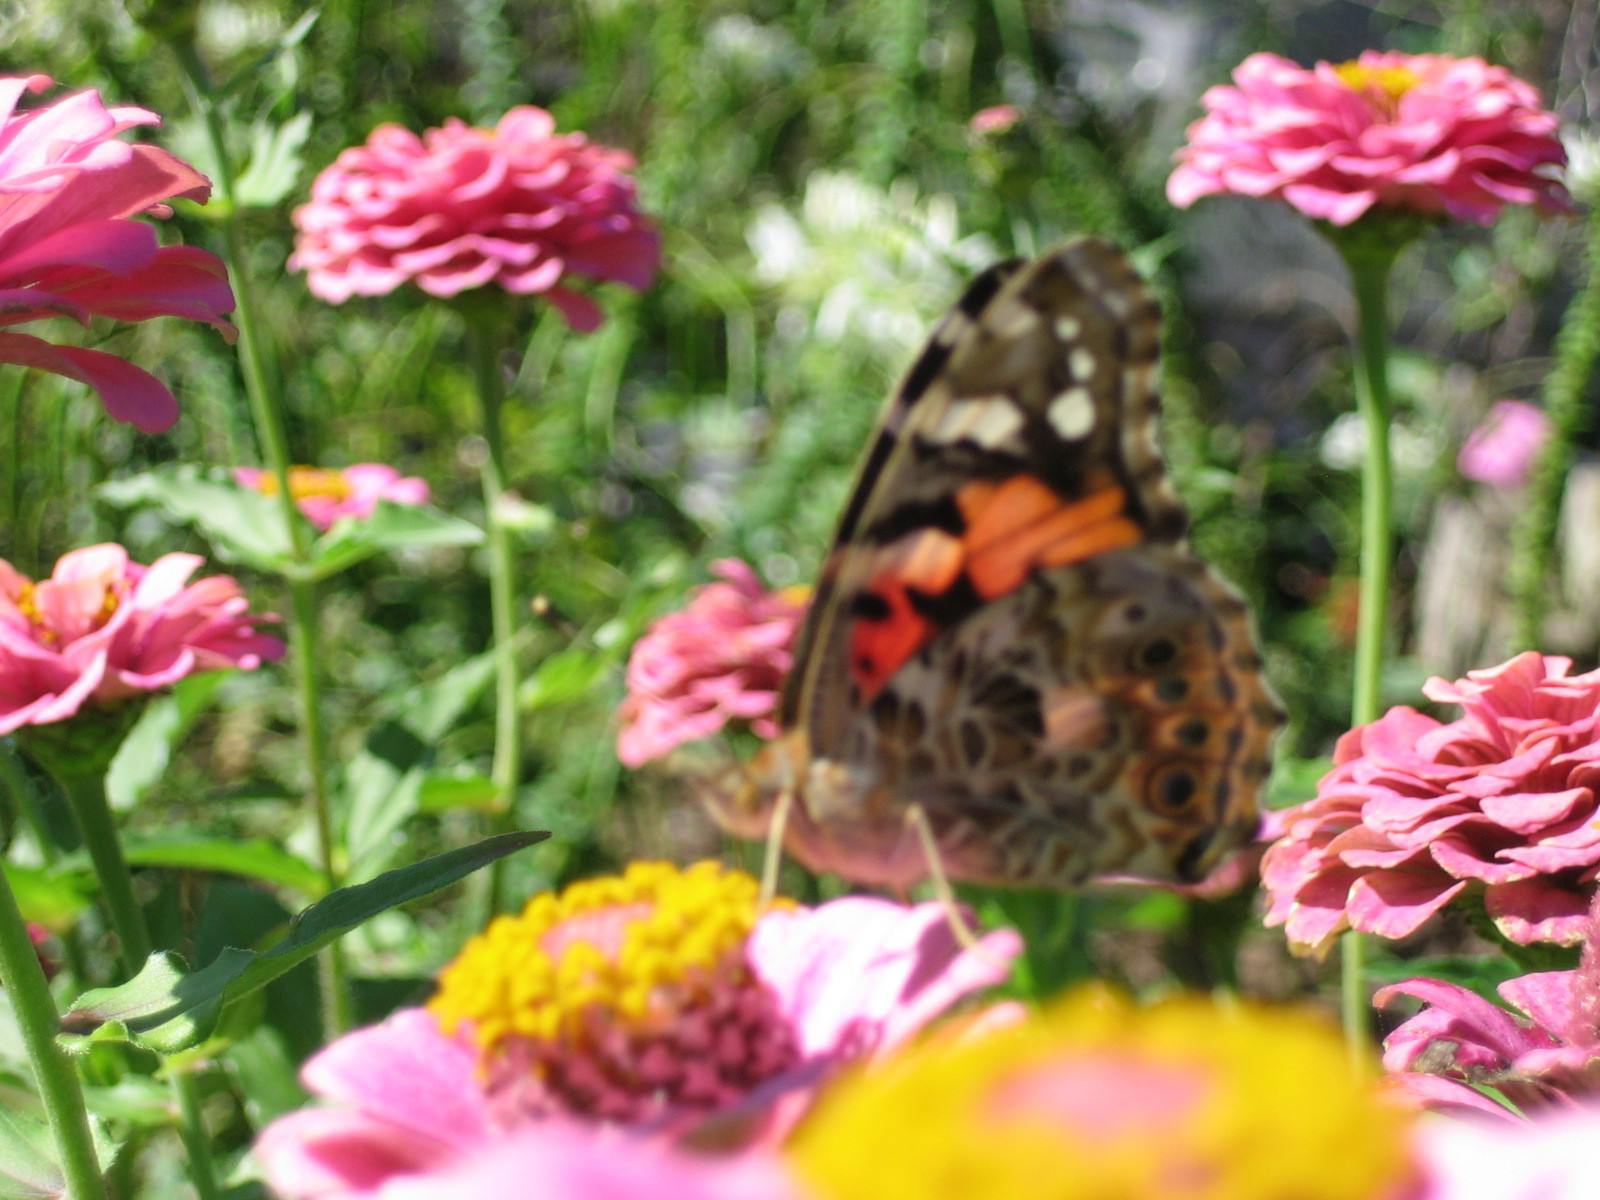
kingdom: Animalia
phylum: Arthropoda
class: Insecta
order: Lepidoptera
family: Nymphalidae
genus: Vanessa
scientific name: Vanessa cardui
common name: Painted lady
